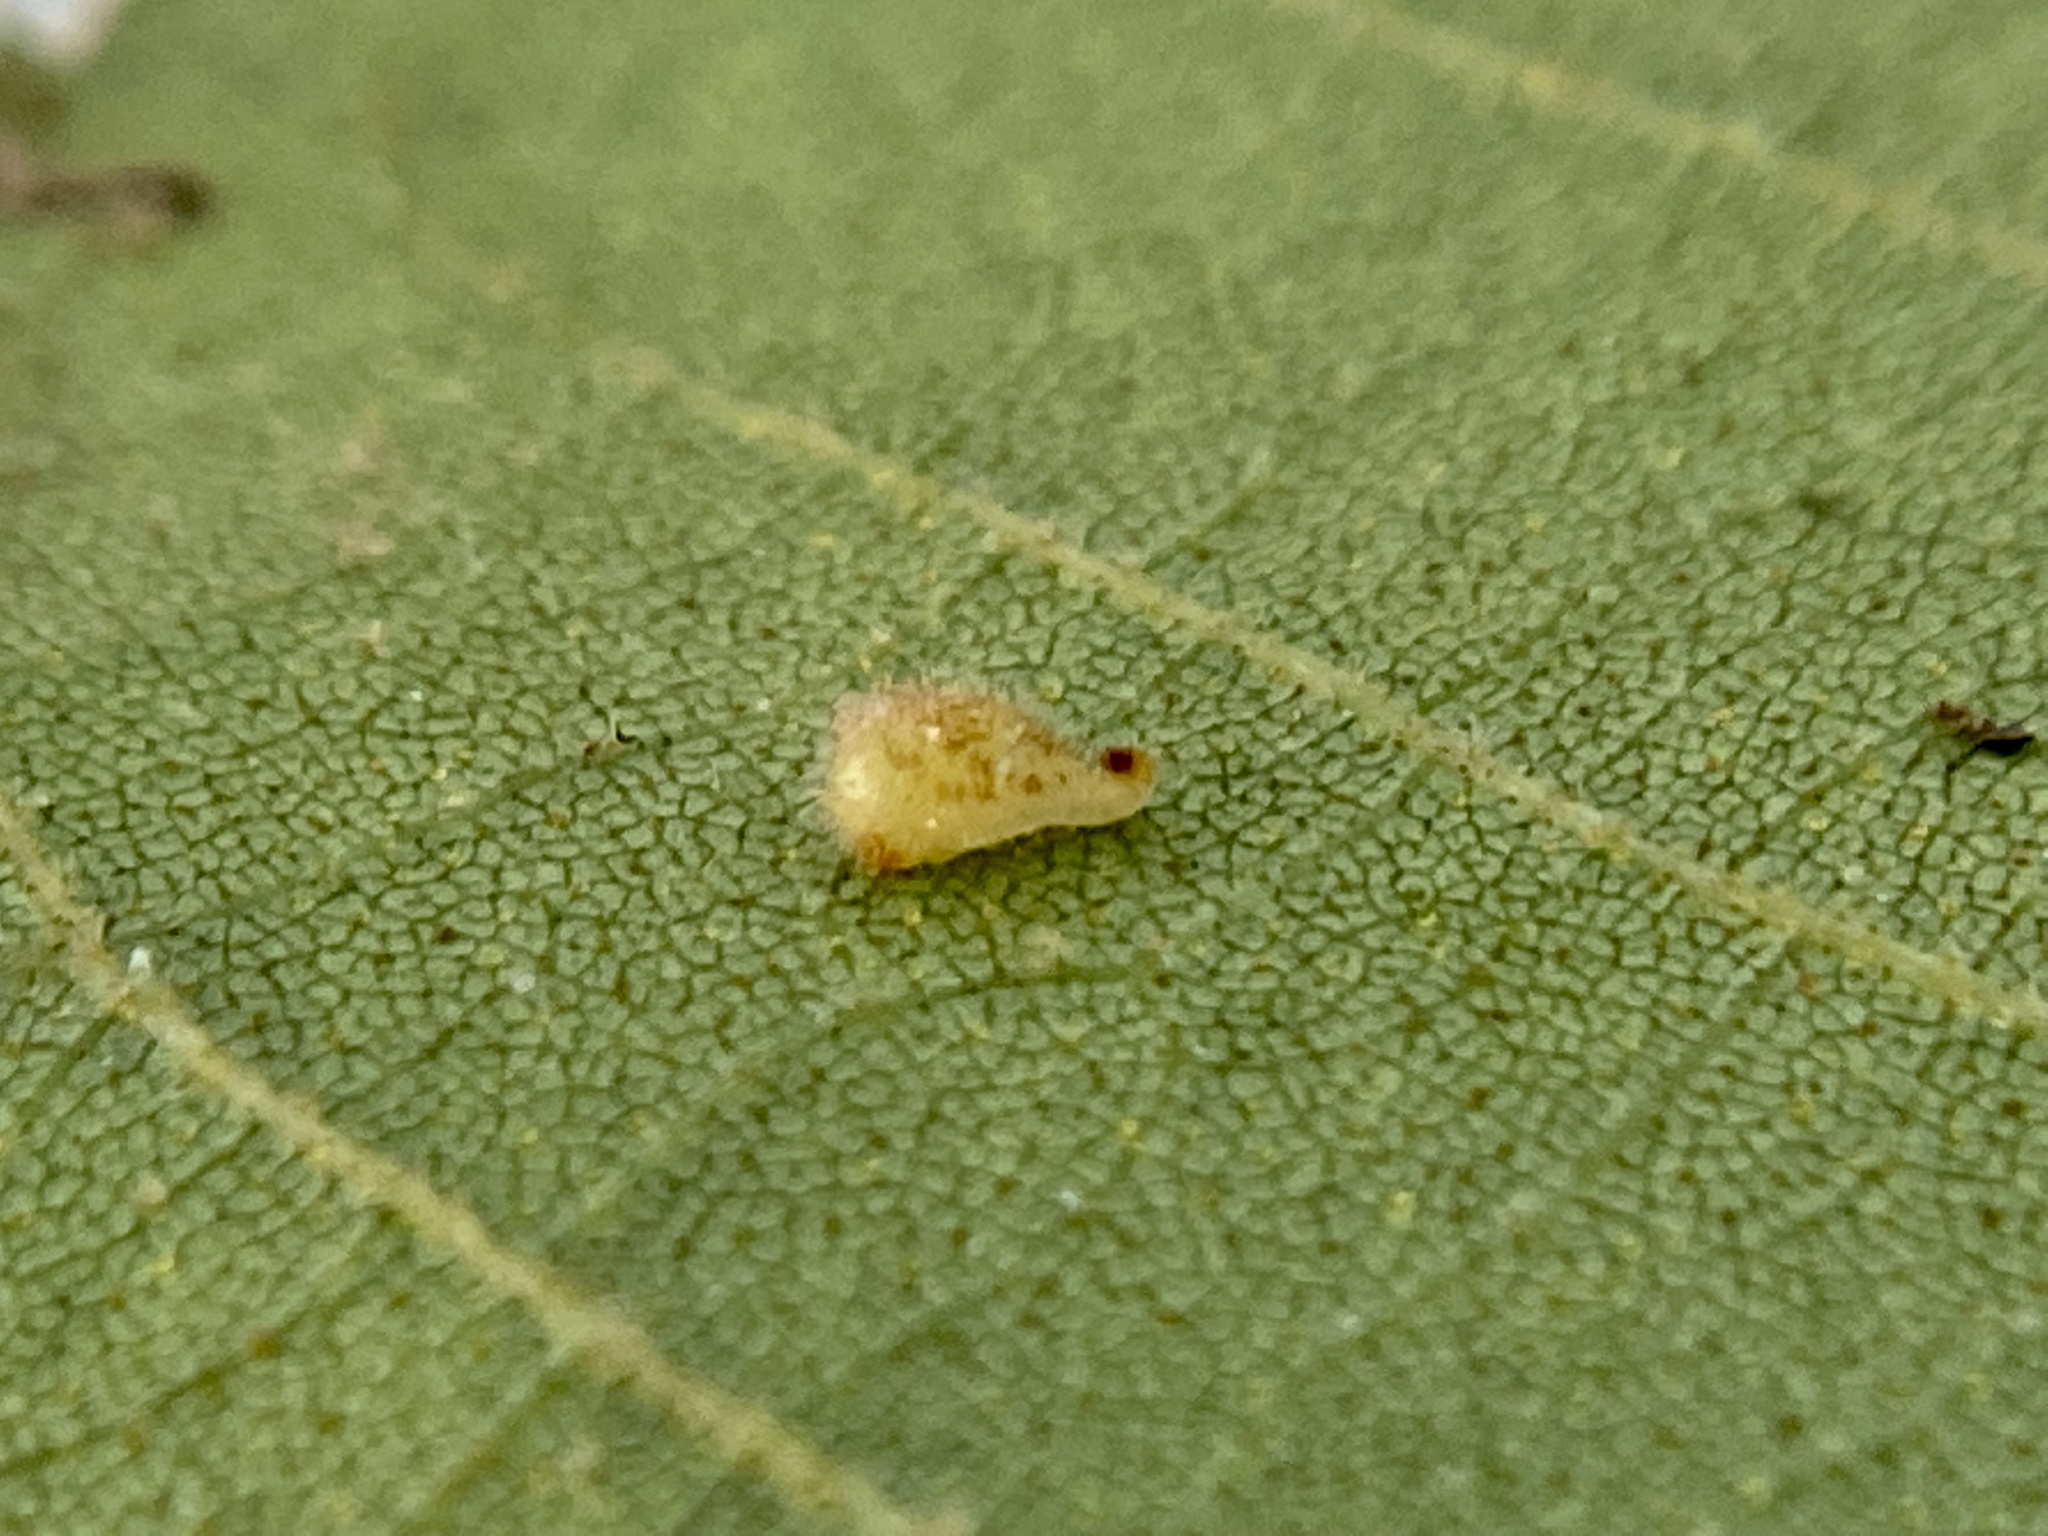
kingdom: Animalia
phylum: Arthropoda
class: Insecta
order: Diptera
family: Cecidomyiidae
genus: Caryomyia
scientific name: Caryomyia eumaris
